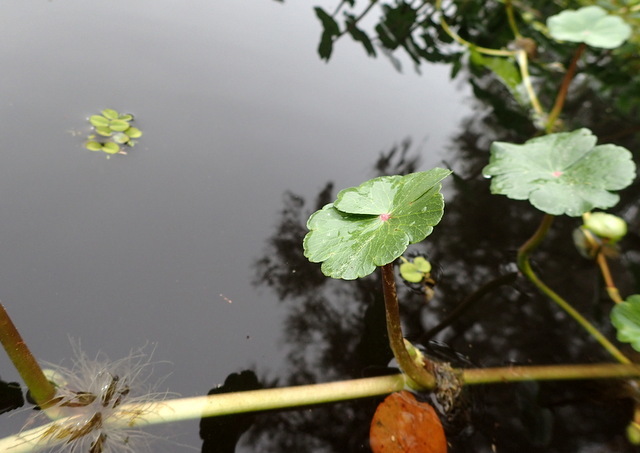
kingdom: Plantae
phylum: Tracheophyta
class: Magnoliopsida
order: Apiales
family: Araliaceae
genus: Hydrocotyle
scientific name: Hydrocotyle ranunculoides
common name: Floating pennywort
